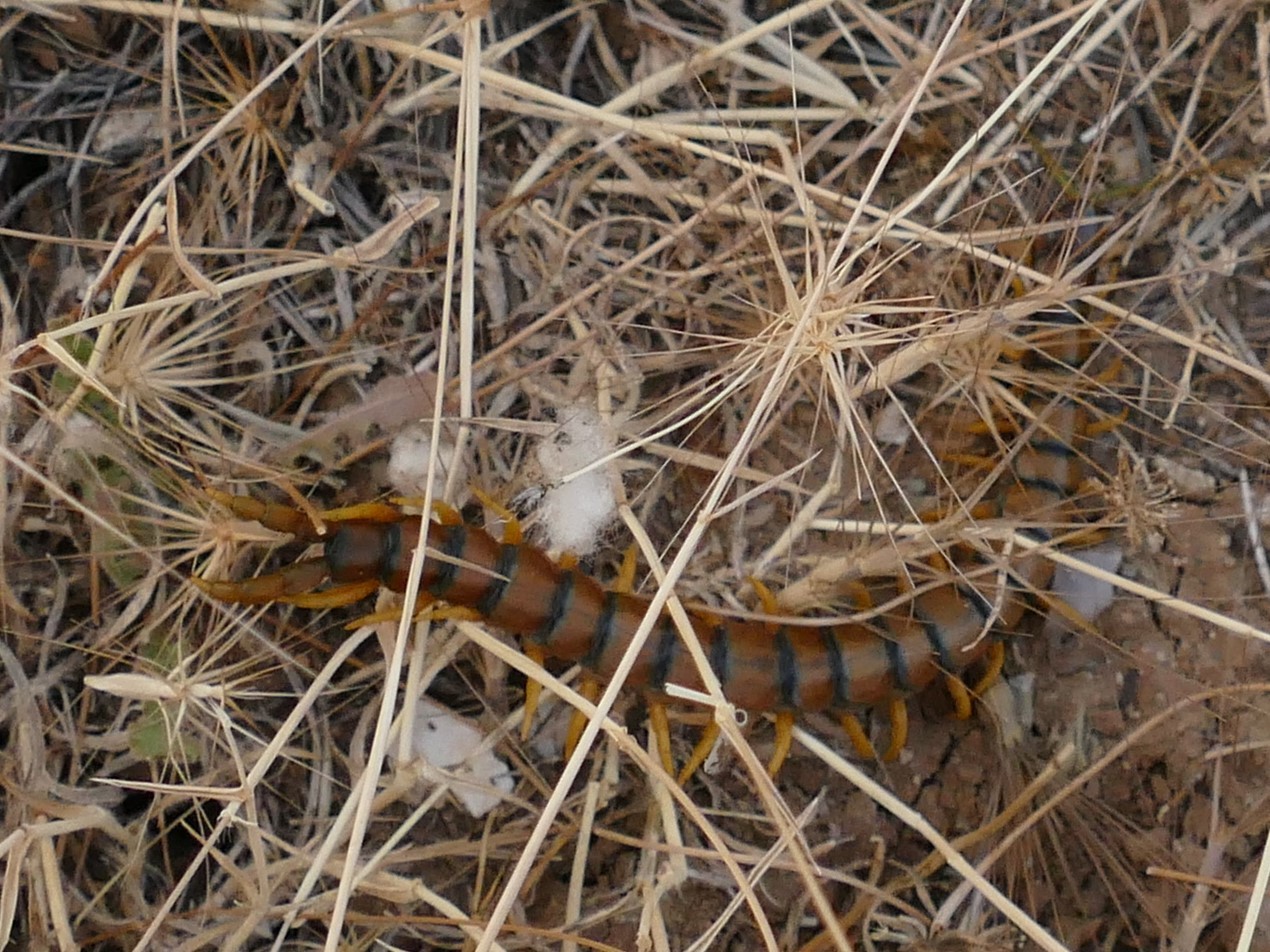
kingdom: Animalia
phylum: Arthropoda
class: Chilopoda
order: Scolopendromorpha
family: Scolopendridae
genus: Scolopendra
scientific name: Scolopendra cingulata
